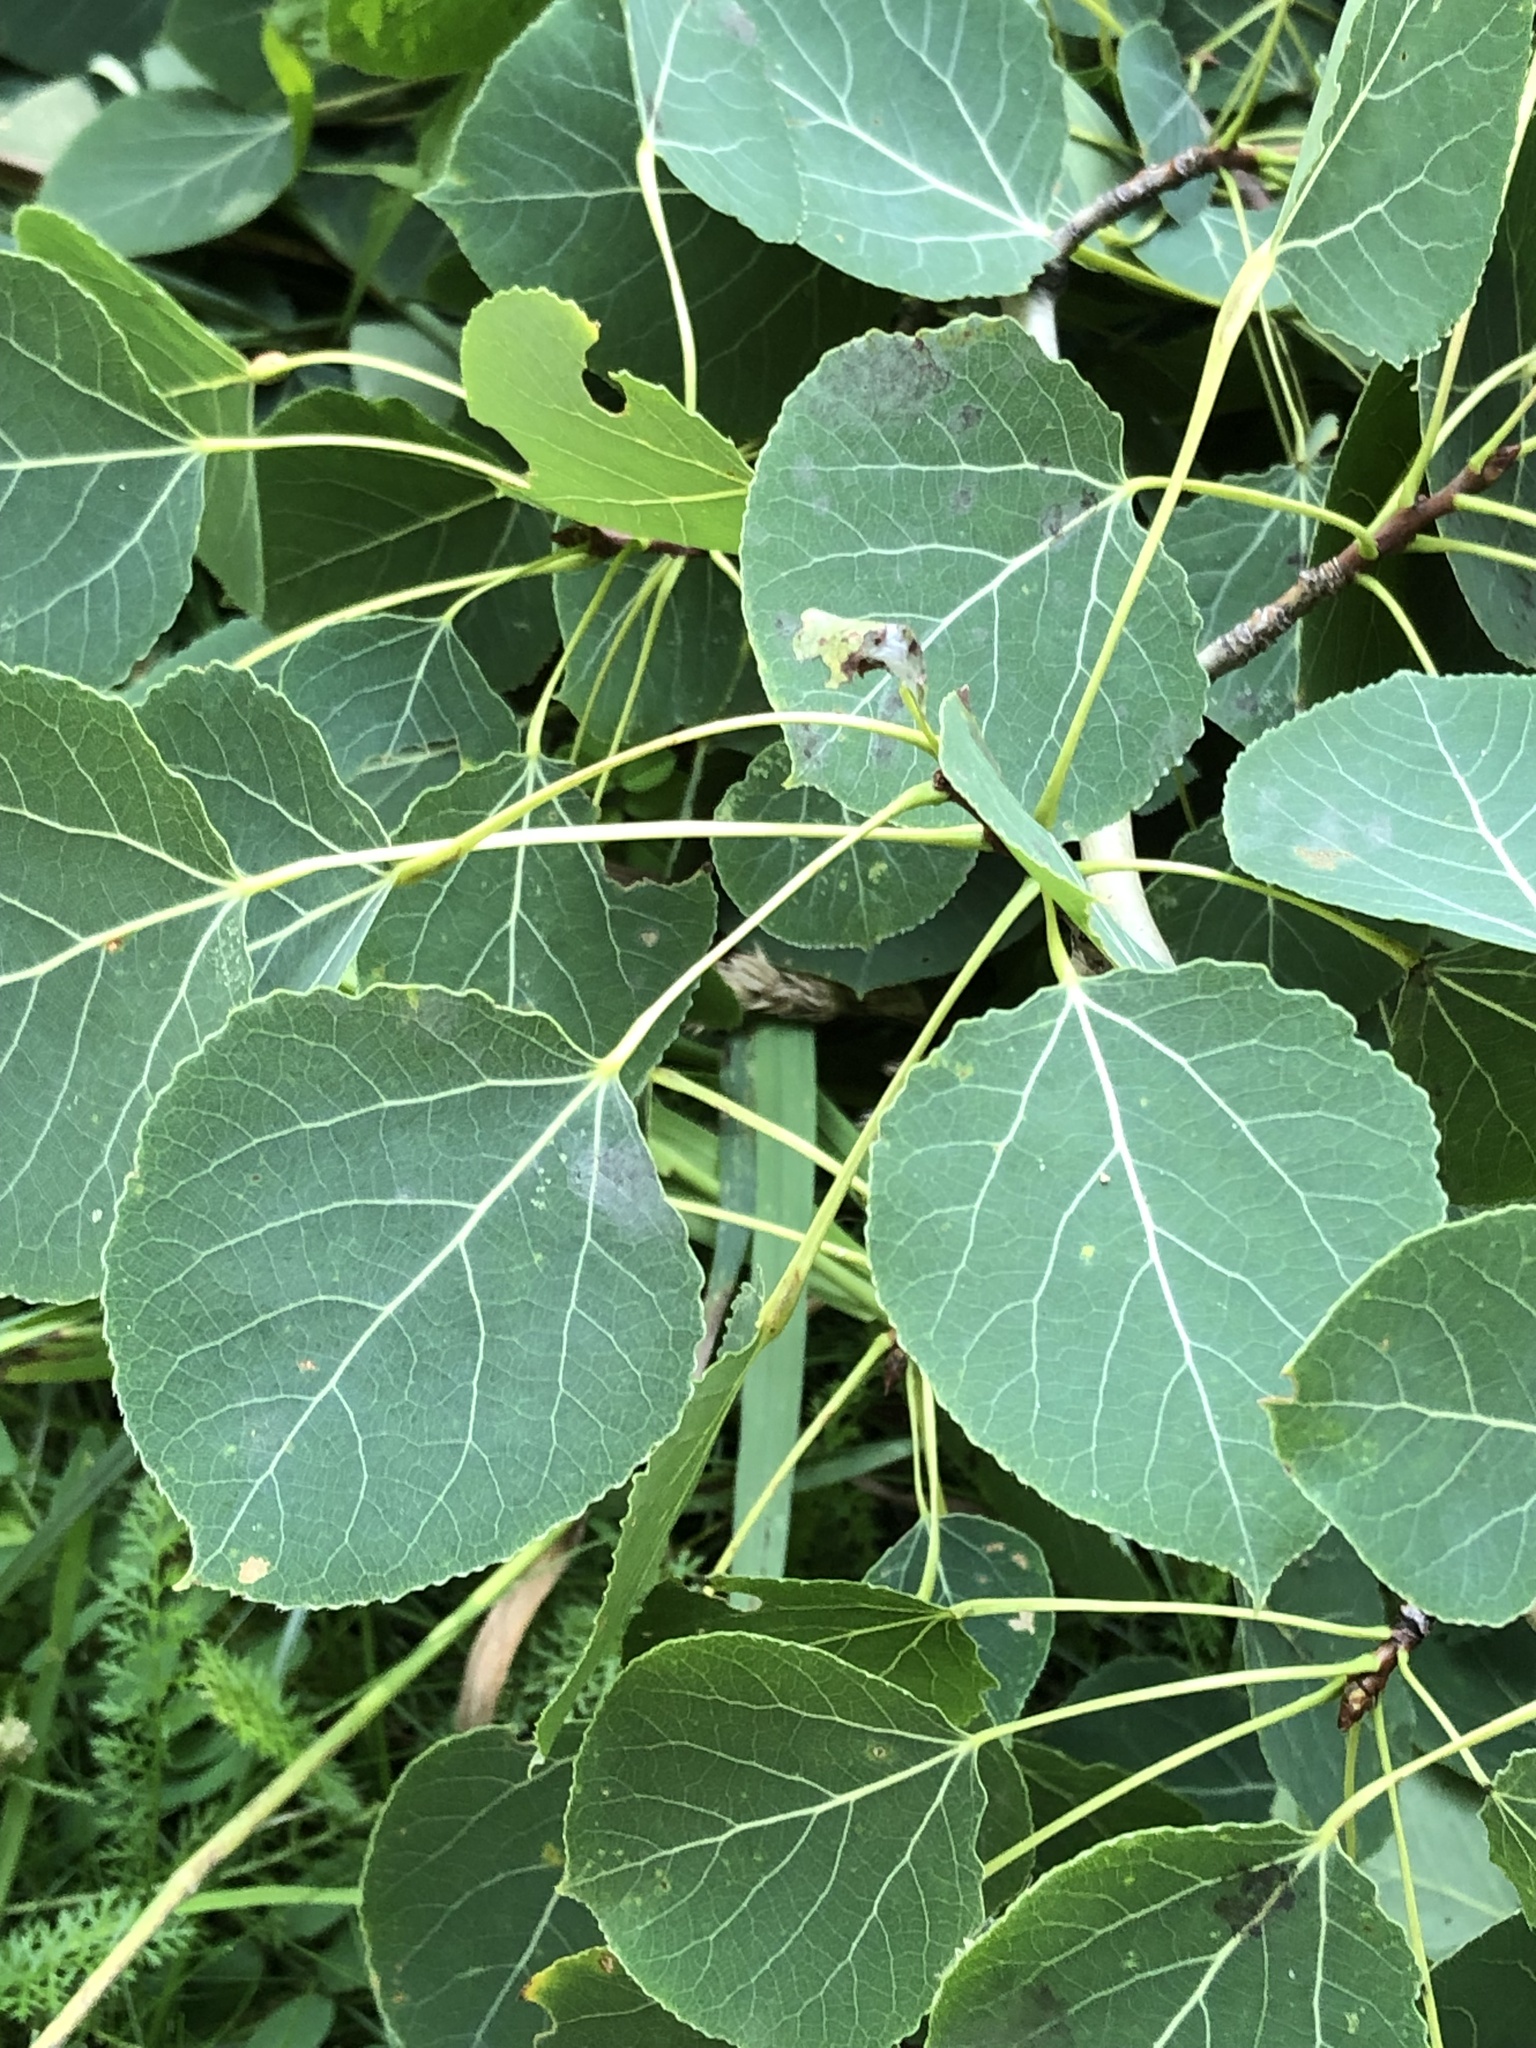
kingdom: Plantae
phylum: Tracheophyta
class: Magnoliopsida
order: Malpighiales
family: Salicaceae
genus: Populus
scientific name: Populus tremuloides
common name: Quaking aspen
